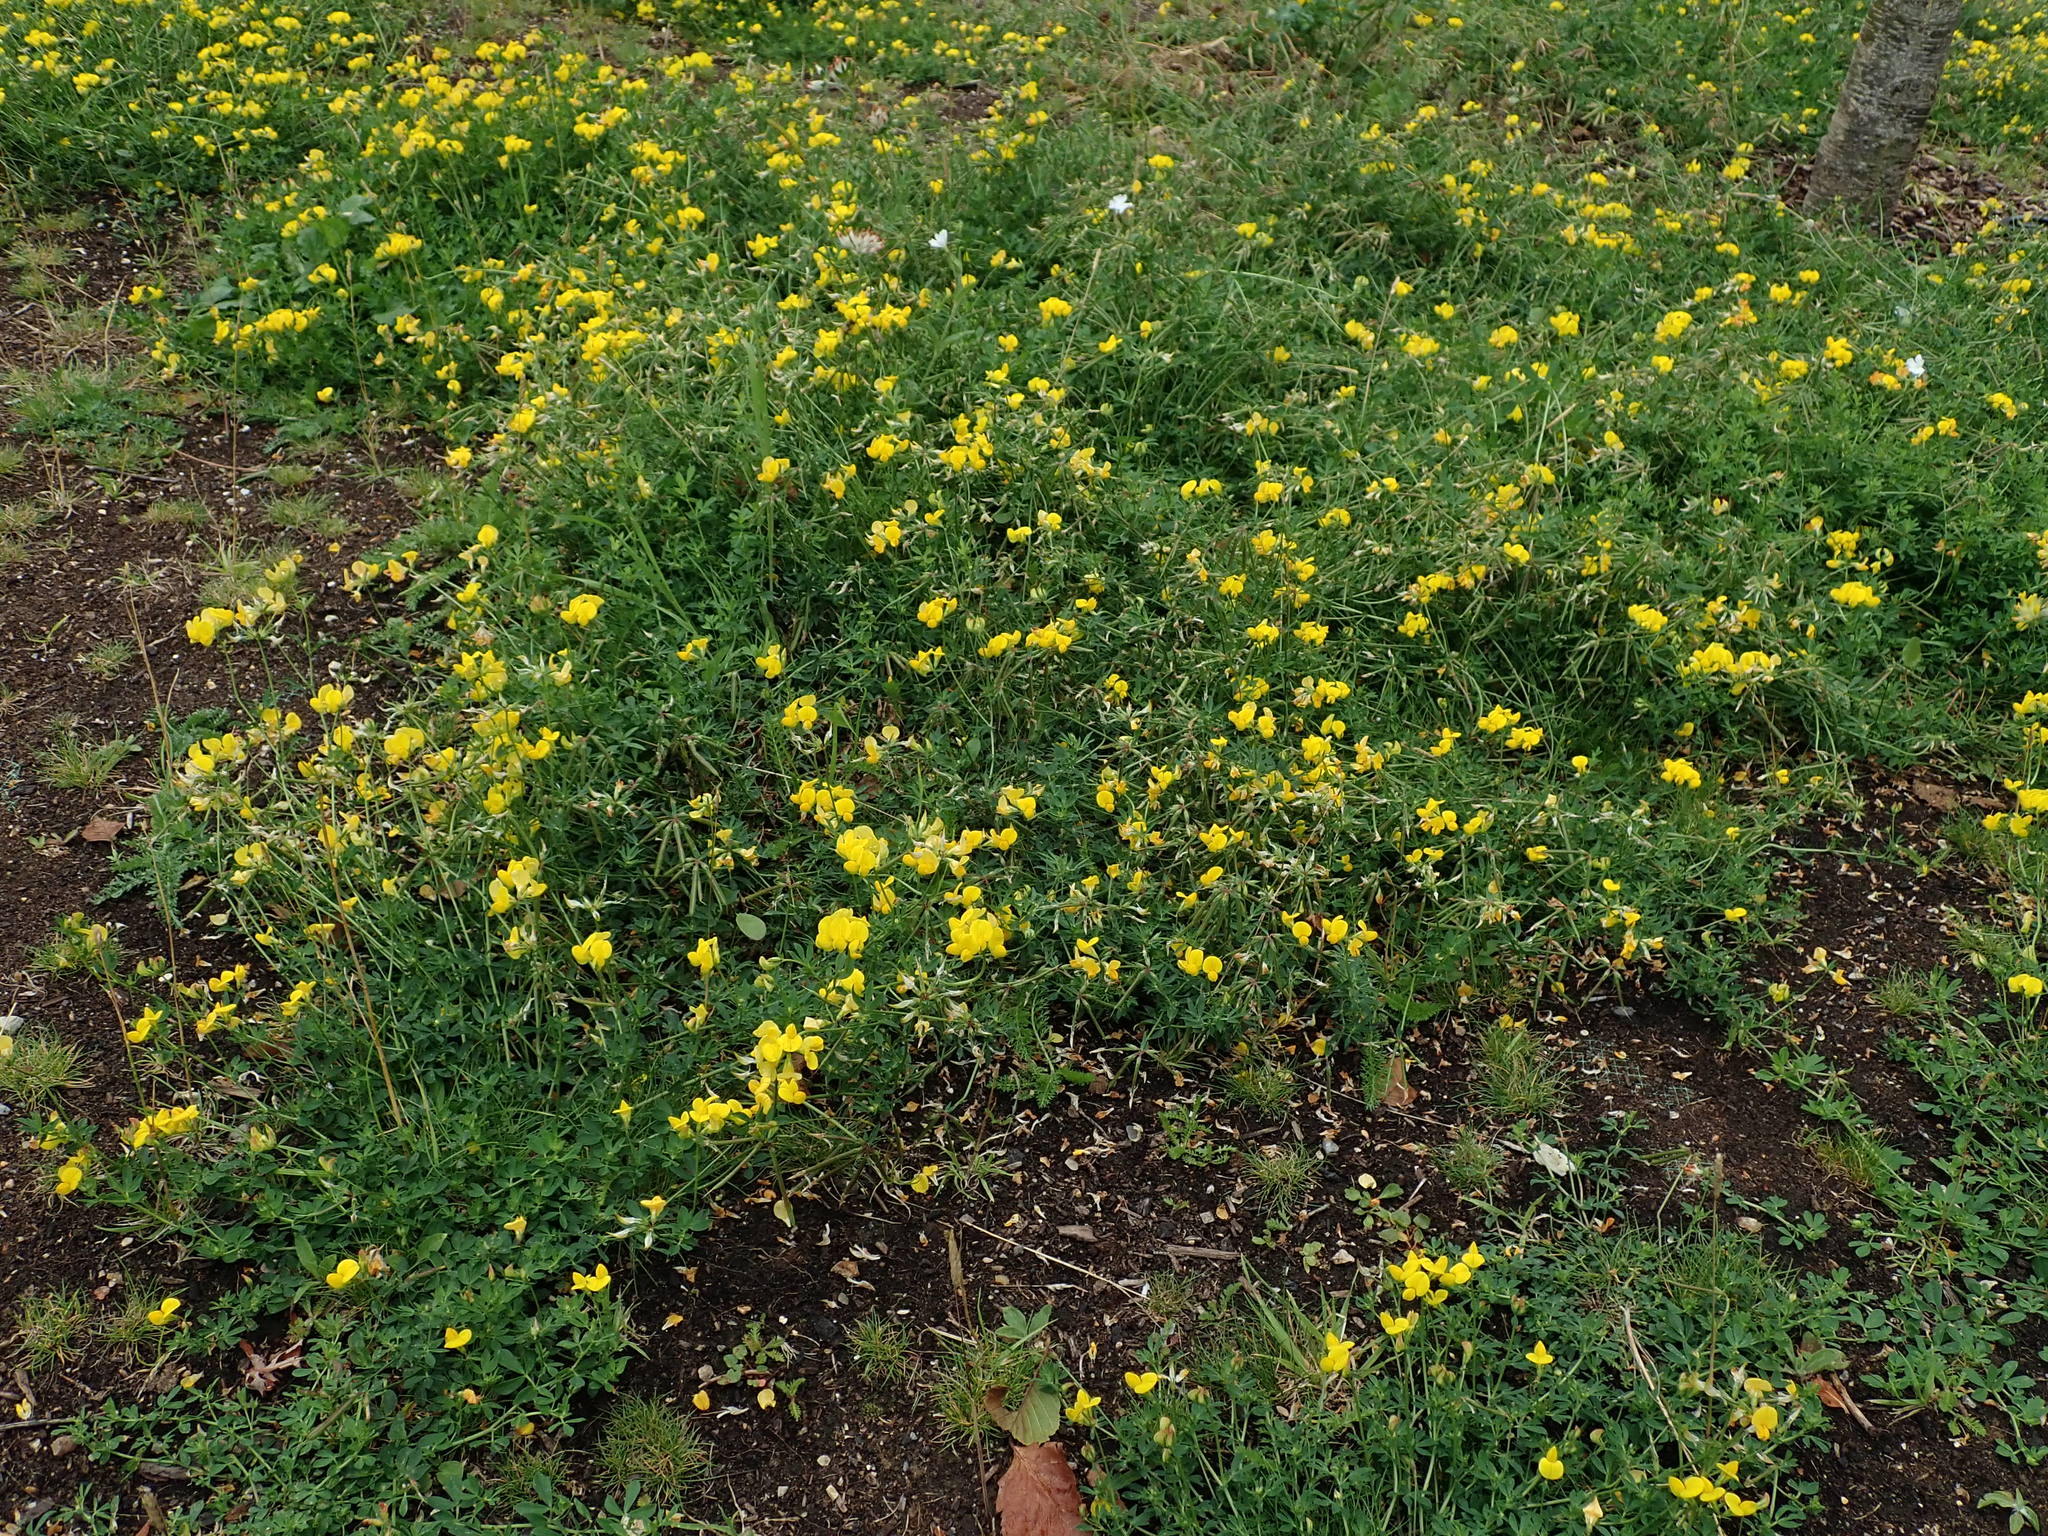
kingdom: Plantae
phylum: Tracheophyta
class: Magnoliopsida
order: Fabales
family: Fabaceae
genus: Lotus
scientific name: Lotus corniculatus
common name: Common bird's-foot-trefoil
